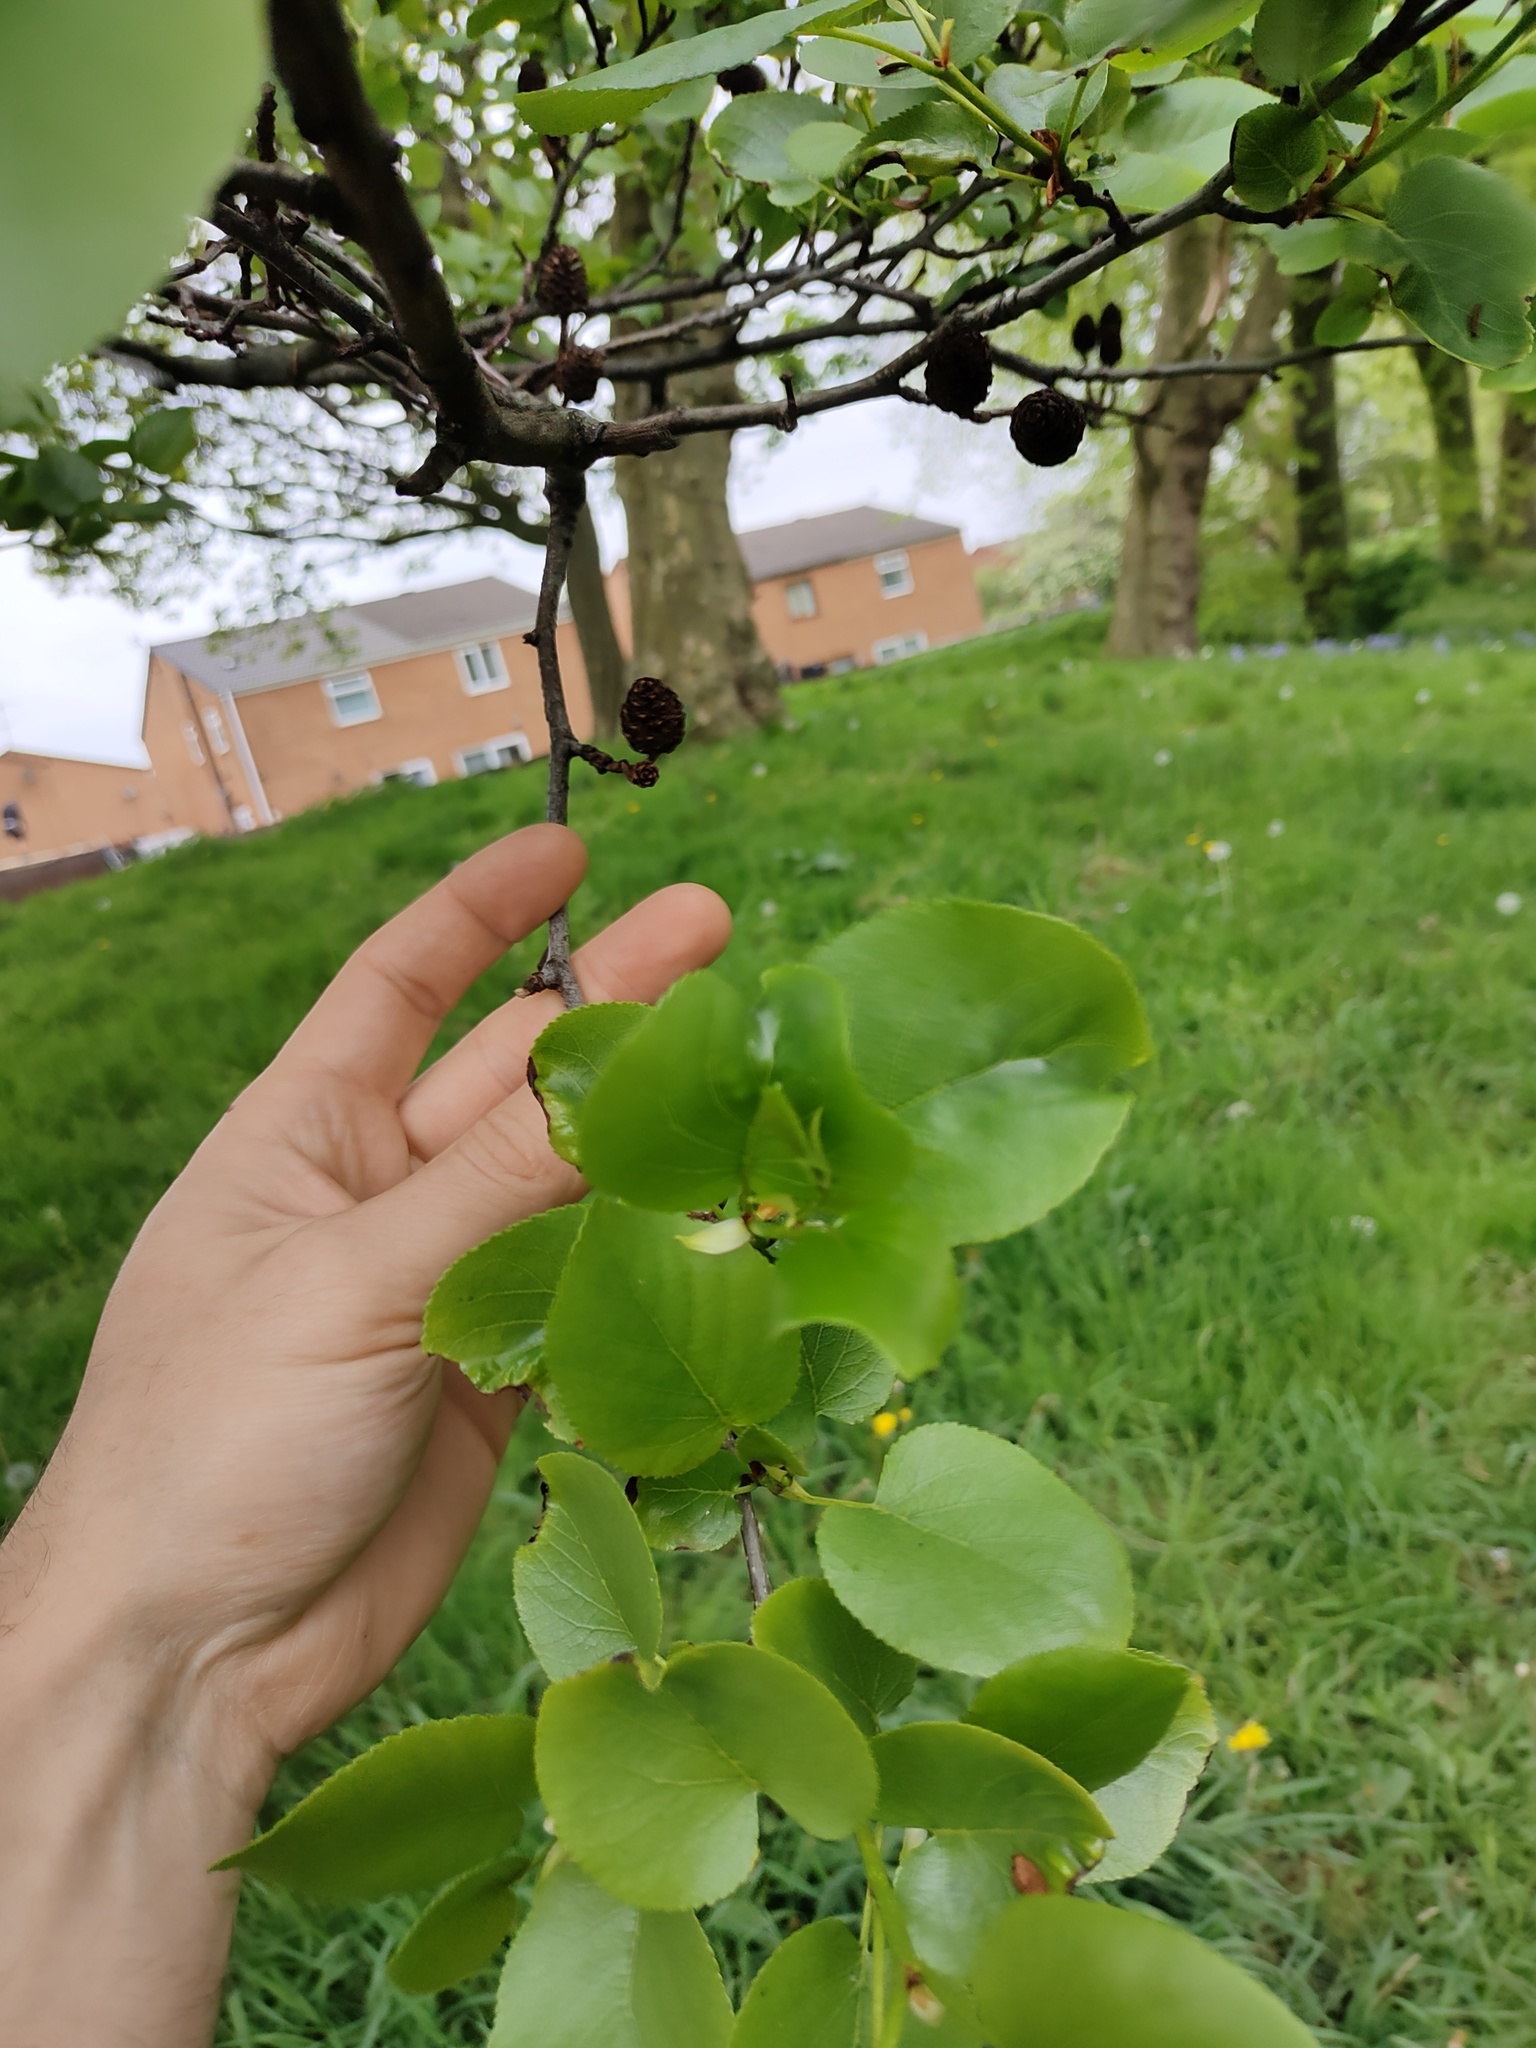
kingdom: Plantae
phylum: Tracheophyta
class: Magnoliopsida
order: Fagales
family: Betulaceae
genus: Alnus
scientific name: Alnus cordata
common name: Italian alder
